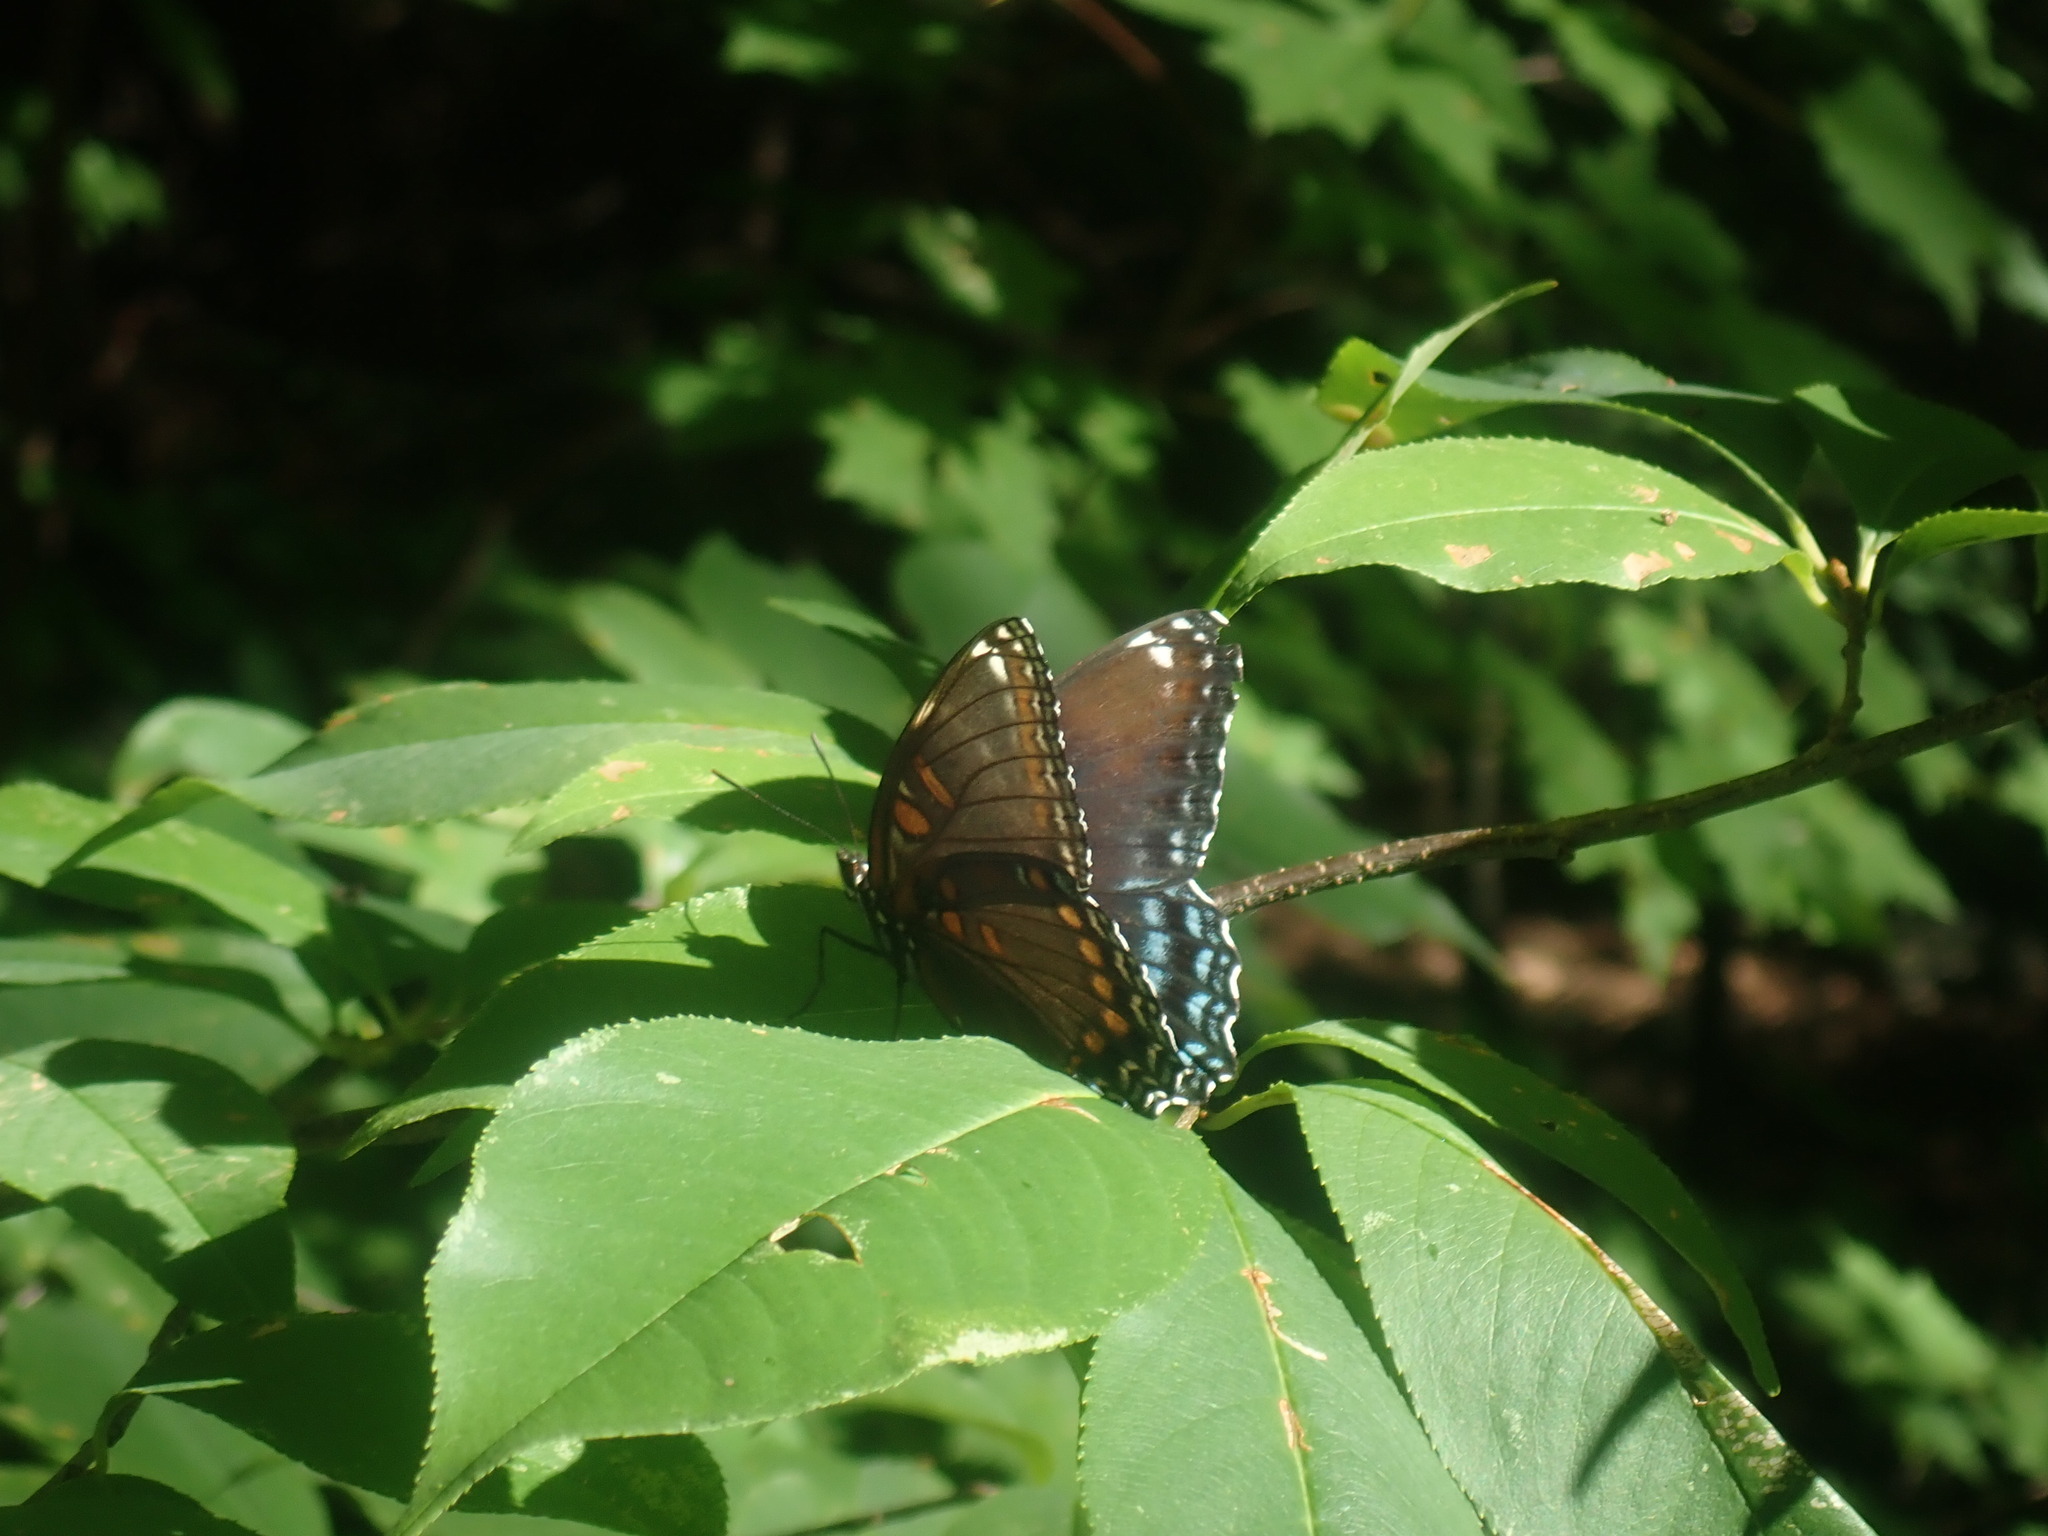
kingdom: Animalia
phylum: Arthropoda
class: Insecta
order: Lepidoptera
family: Nymphalidae
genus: Limenitis
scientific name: Limenitis arthemis
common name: Red-spotted admiral
